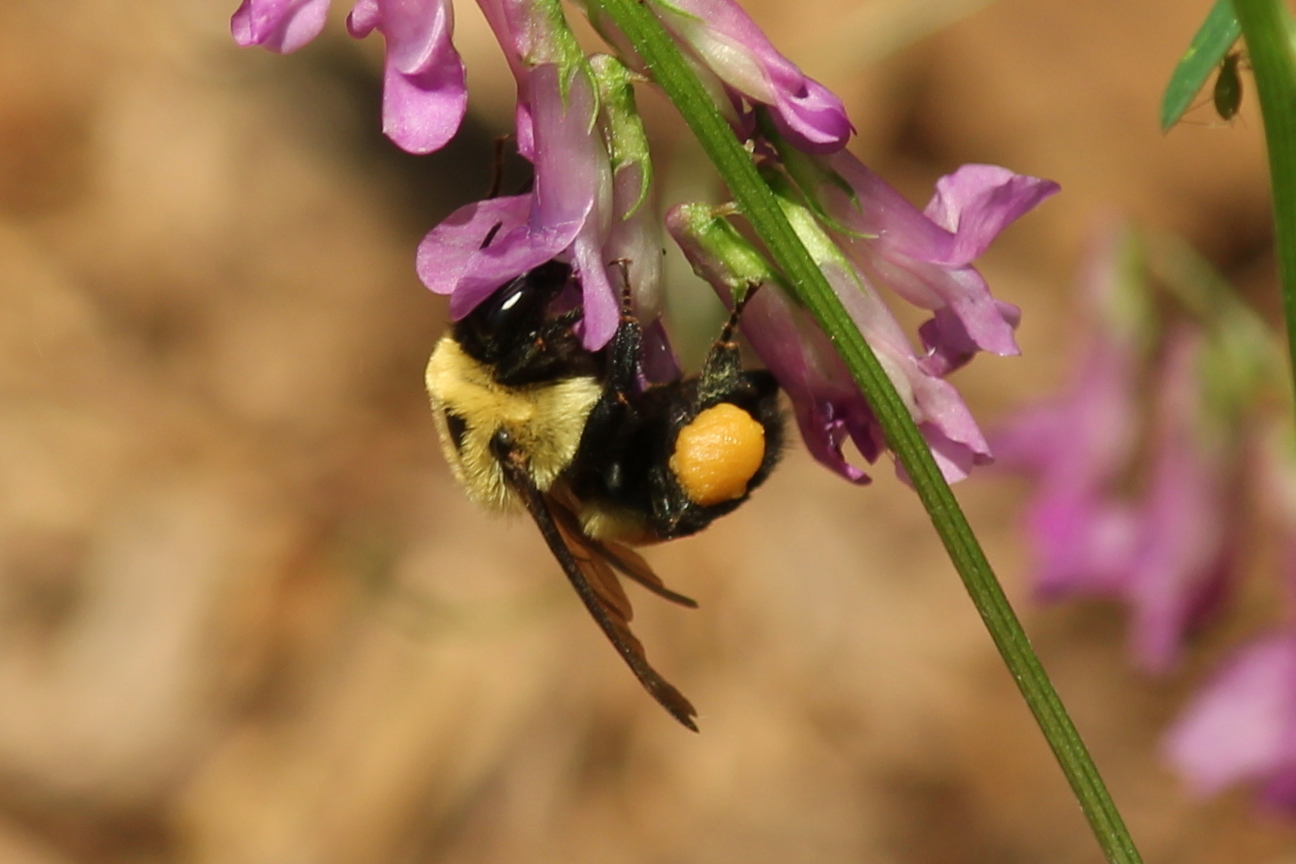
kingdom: Animalia
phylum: Arthropoda
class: Insecta
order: Hymenoptera
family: Apidae
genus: Bombus
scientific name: Bombus griseocollis
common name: Brown-belted bumble bee
